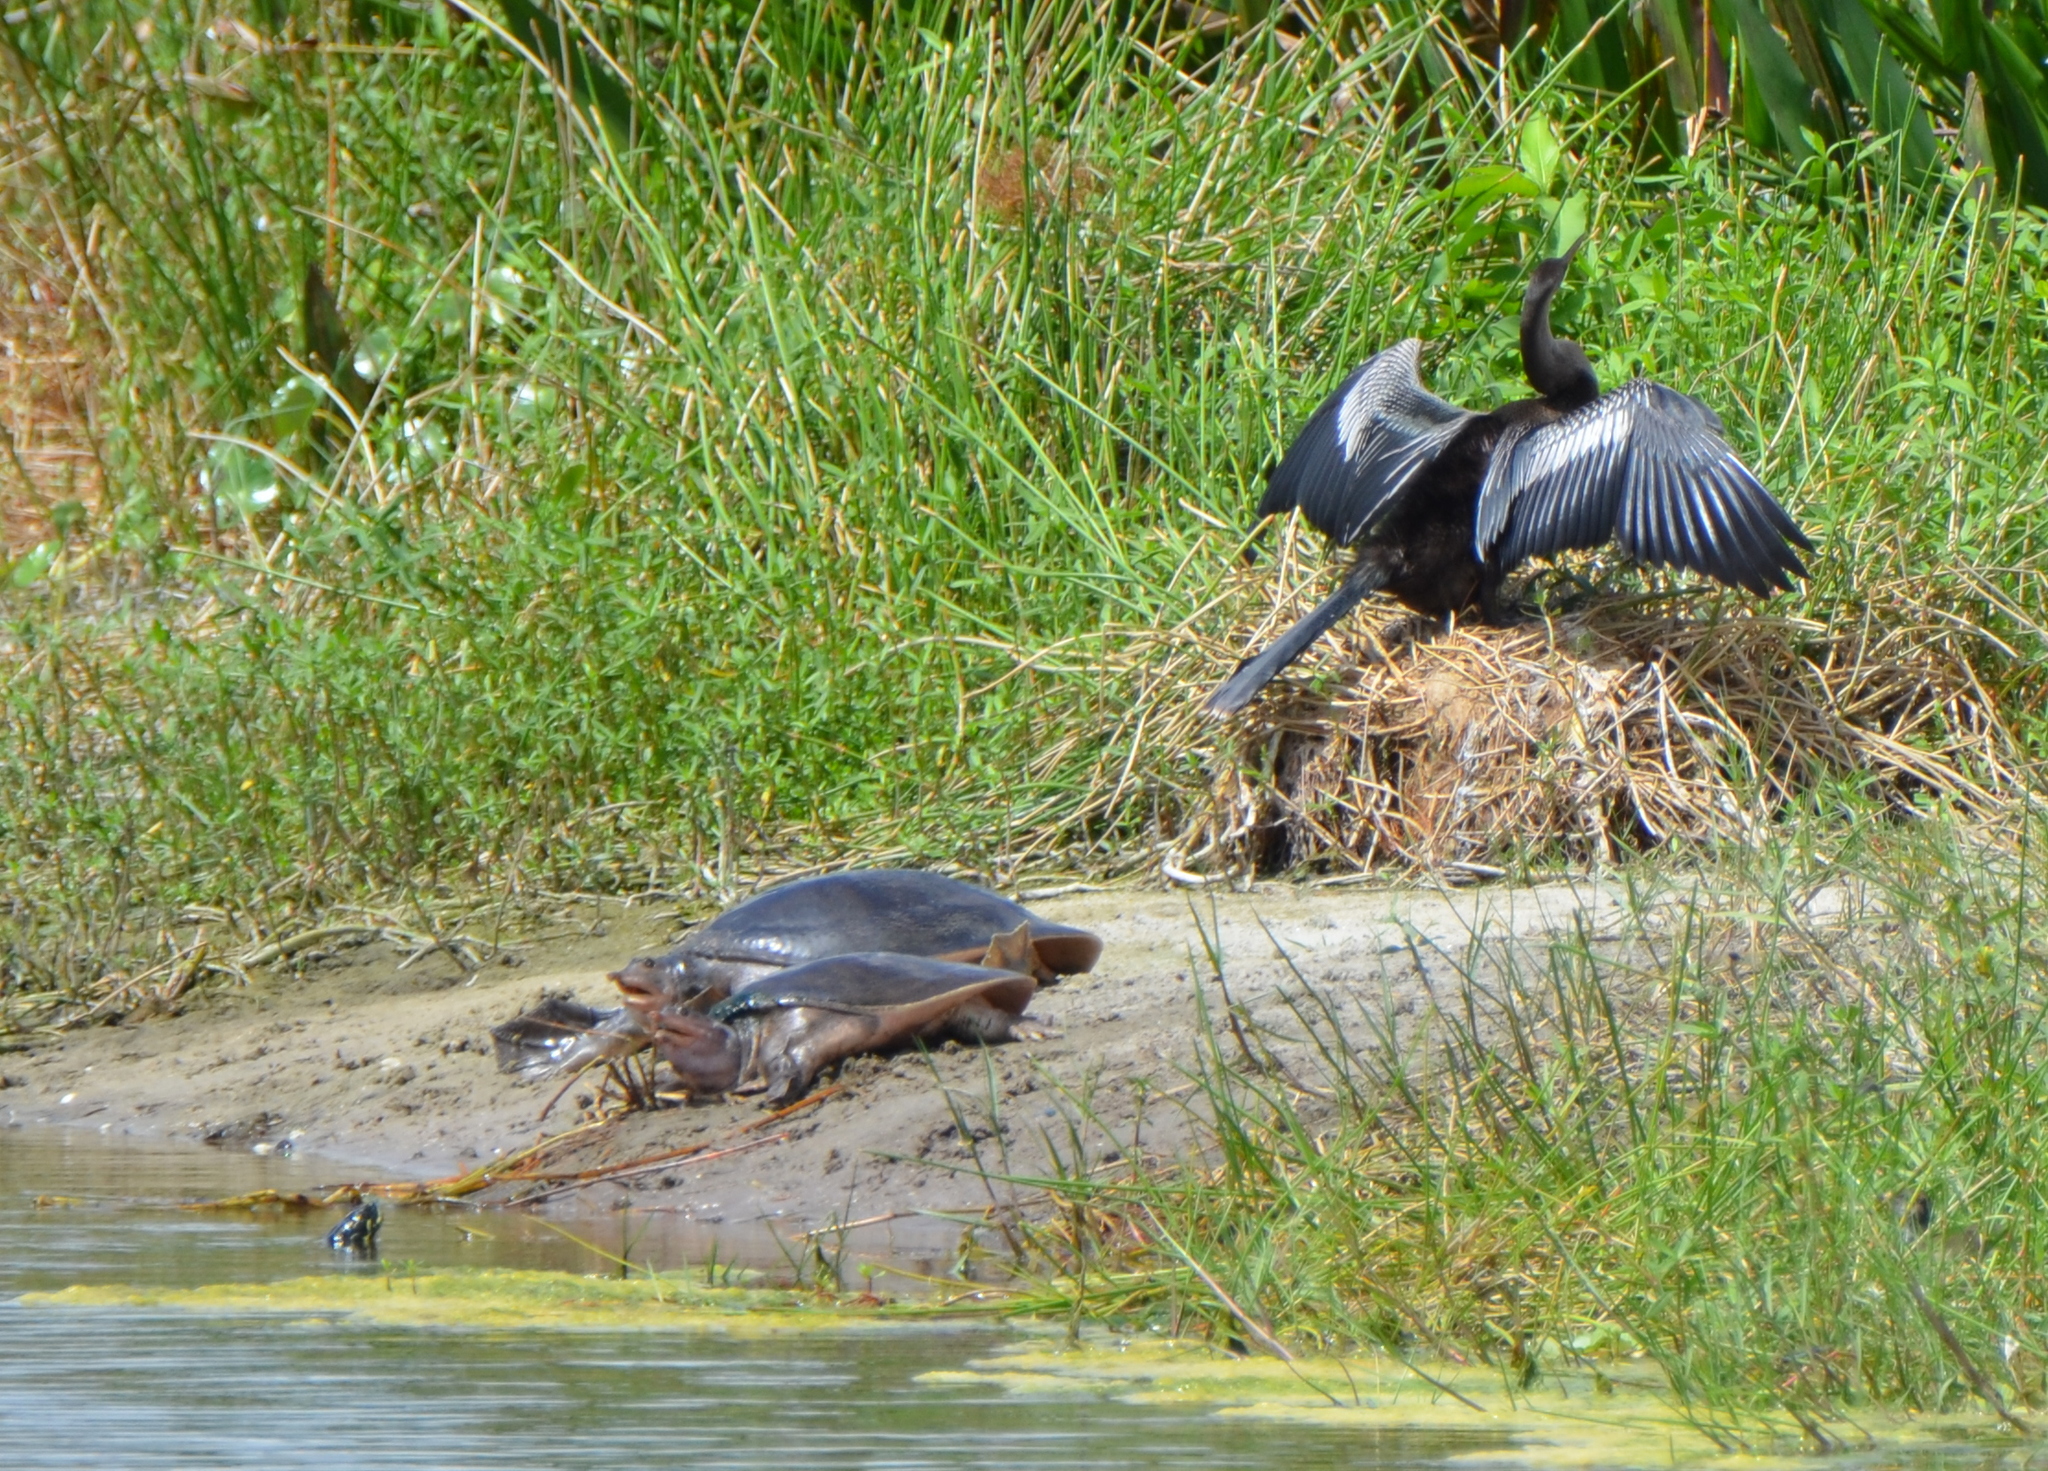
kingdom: Animalia
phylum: Chordata
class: Testudines
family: Trionychidae
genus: Apalone
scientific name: Apalone ferox
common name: Florida softshell turtle
